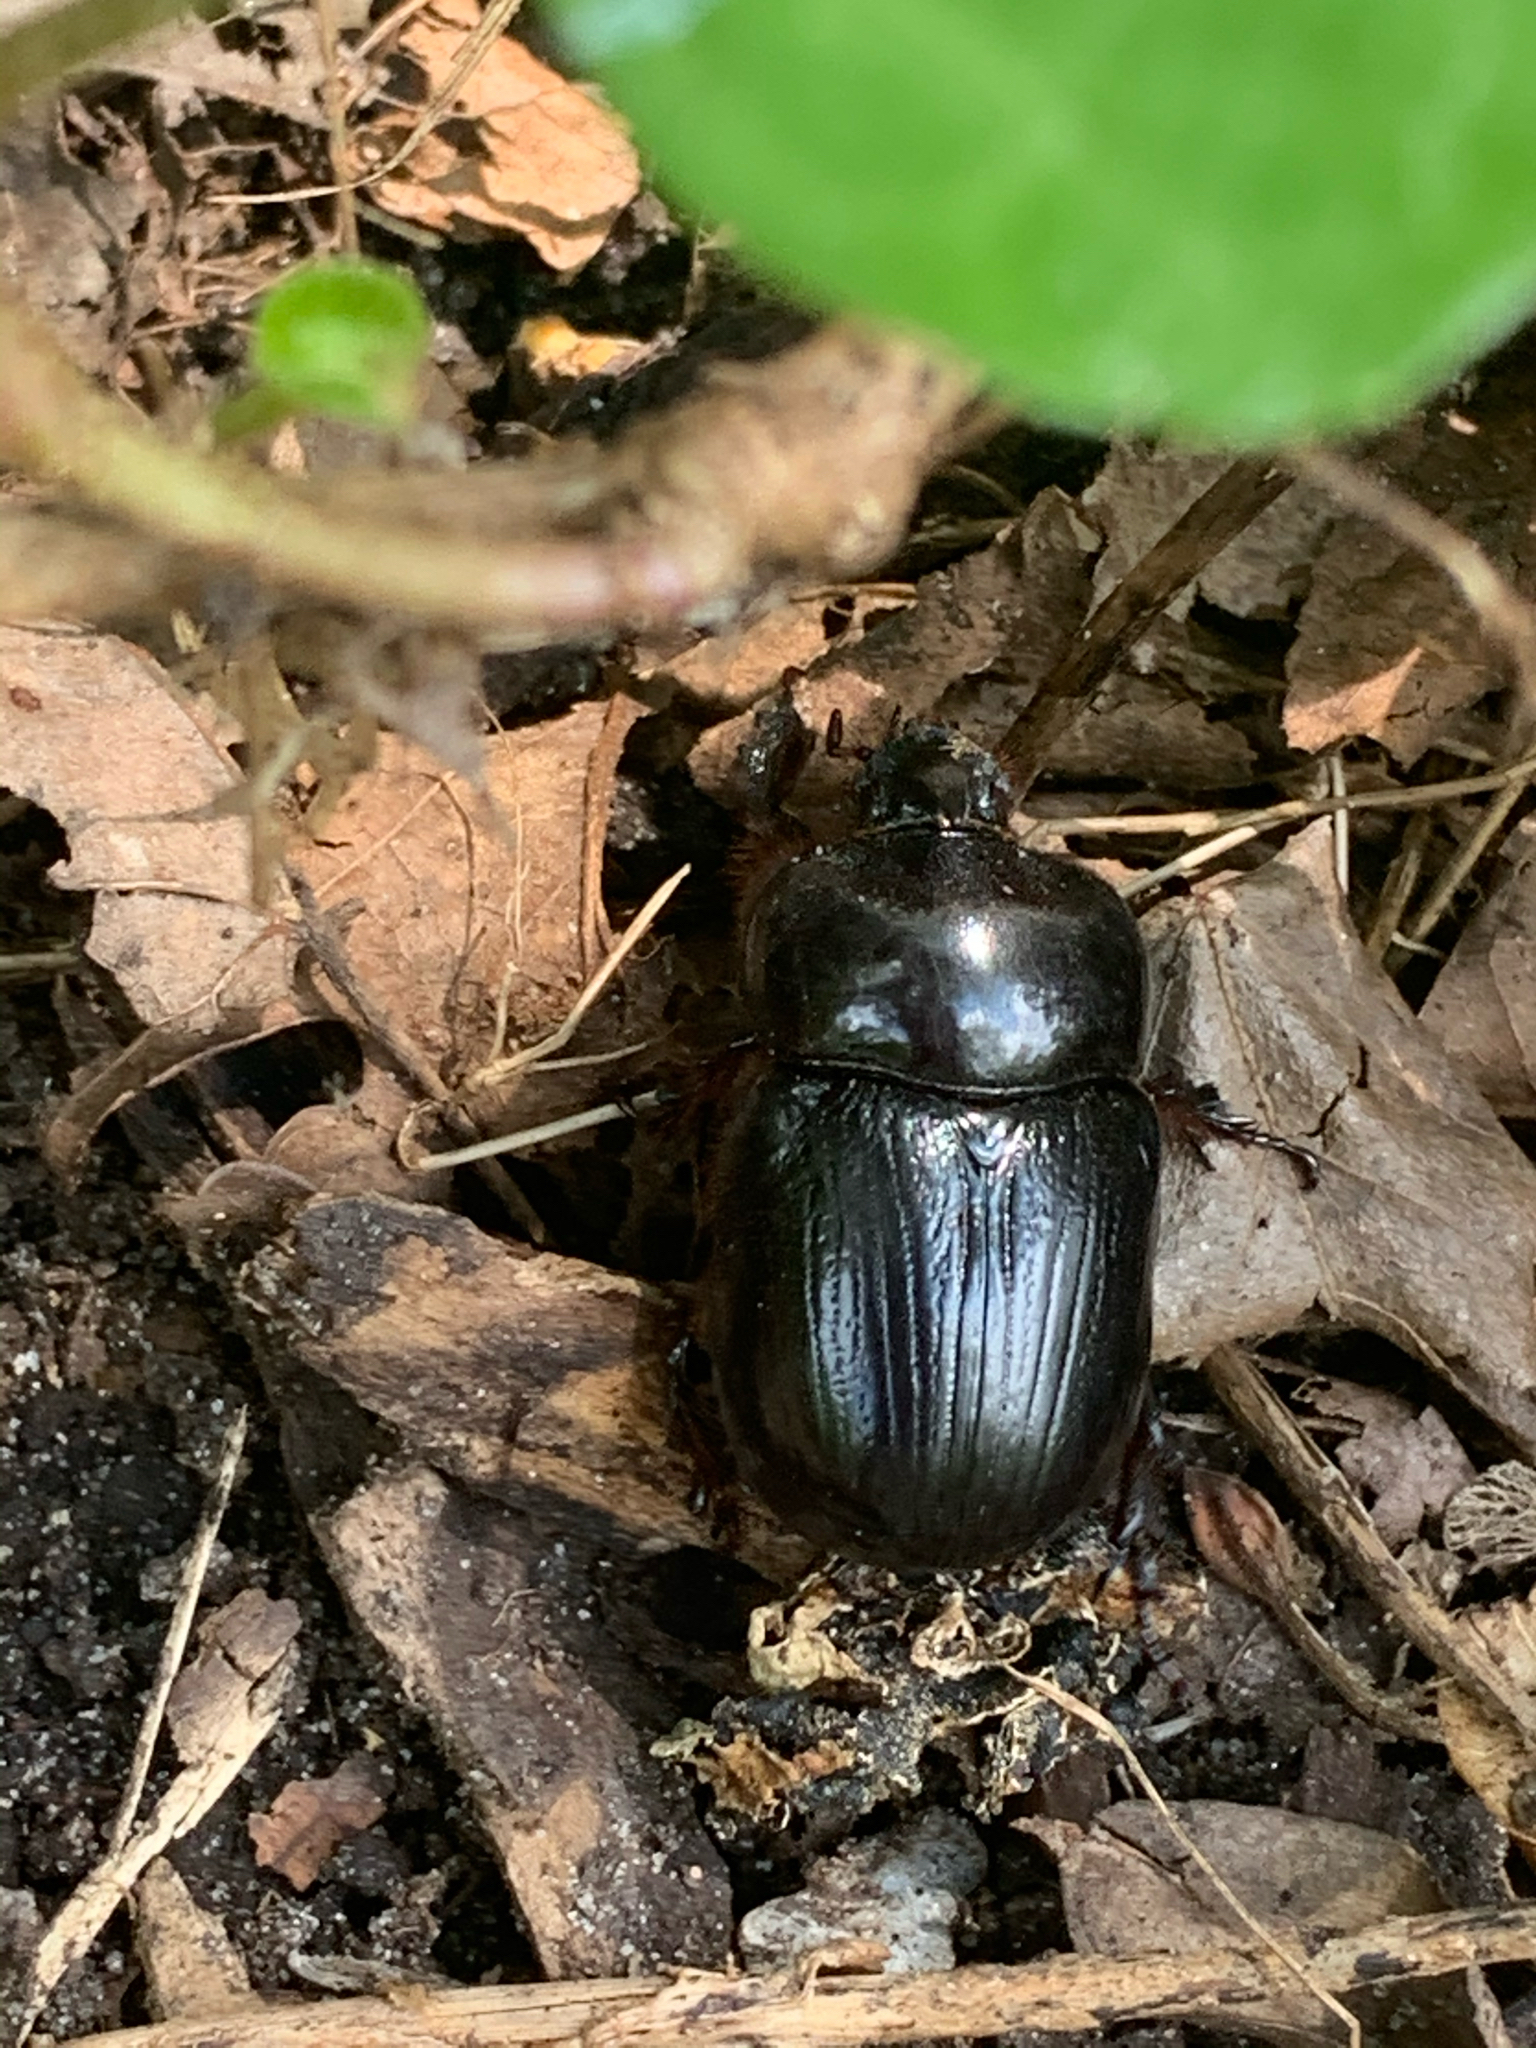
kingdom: Animalia
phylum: Arthropoda
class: Insecta
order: Coleoptera
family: Scarabaeidae
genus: Xyloryctes
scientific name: Xyloryctes jamaicensis
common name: Eastern rhinoceros beetle
